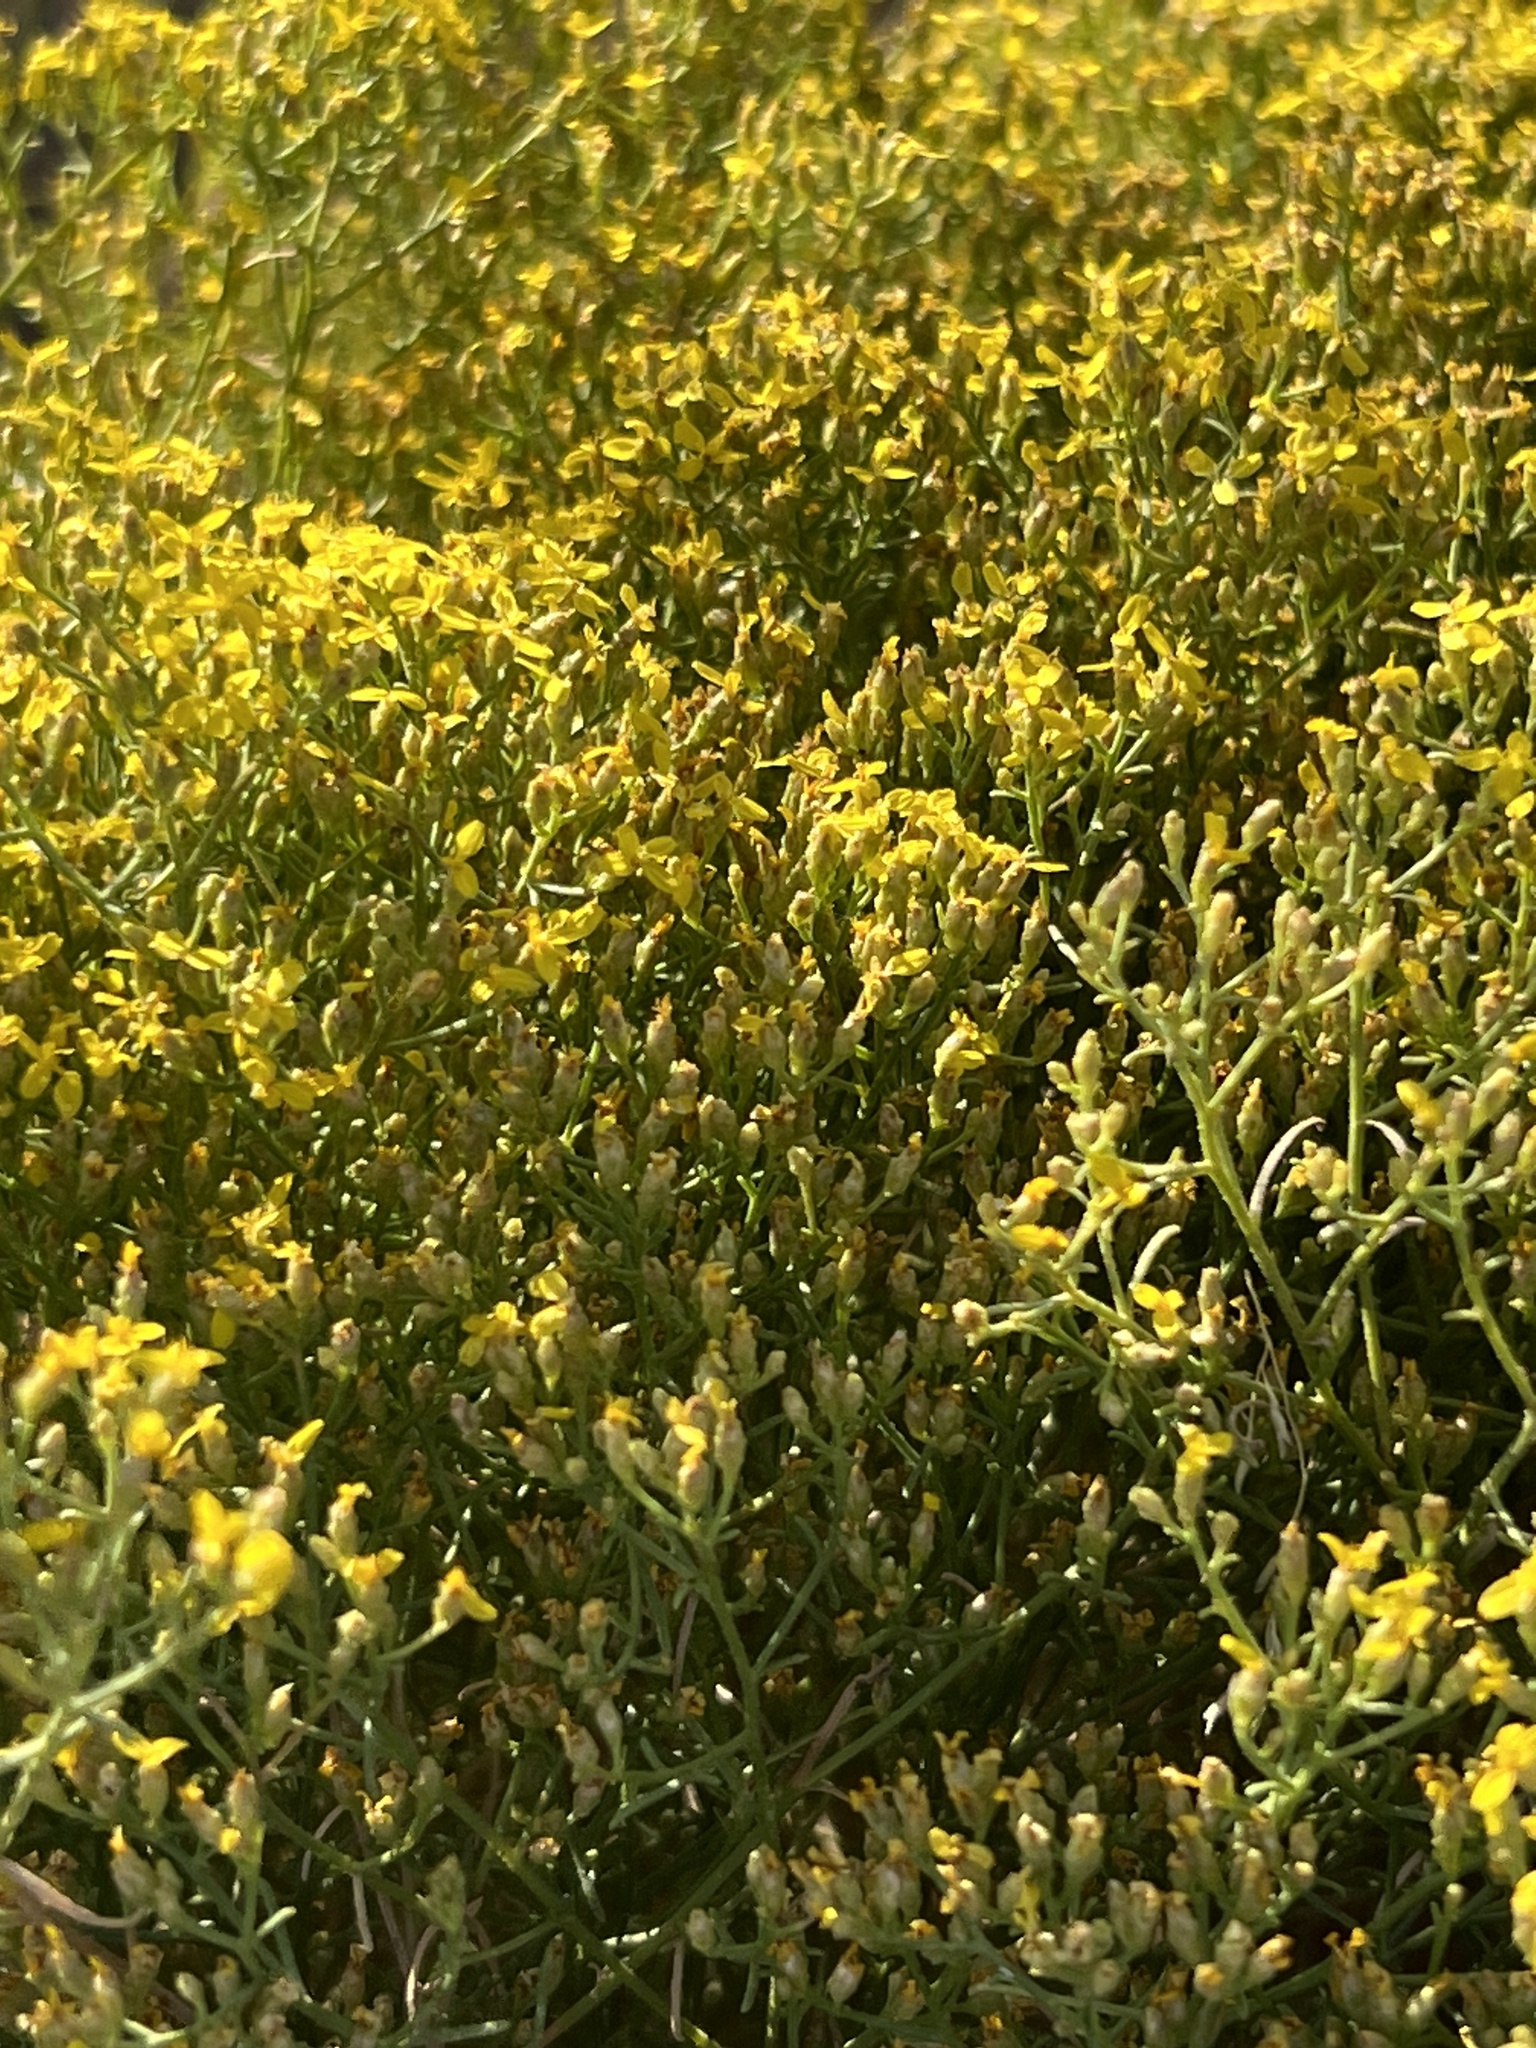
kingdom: Plantae
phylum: Tracheophyta
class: Magnoliopsida
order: Asterales
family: Asteraceae
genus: Gutierrezia
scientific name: Gutierrezia sarothrae
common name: Broom snakeweed
